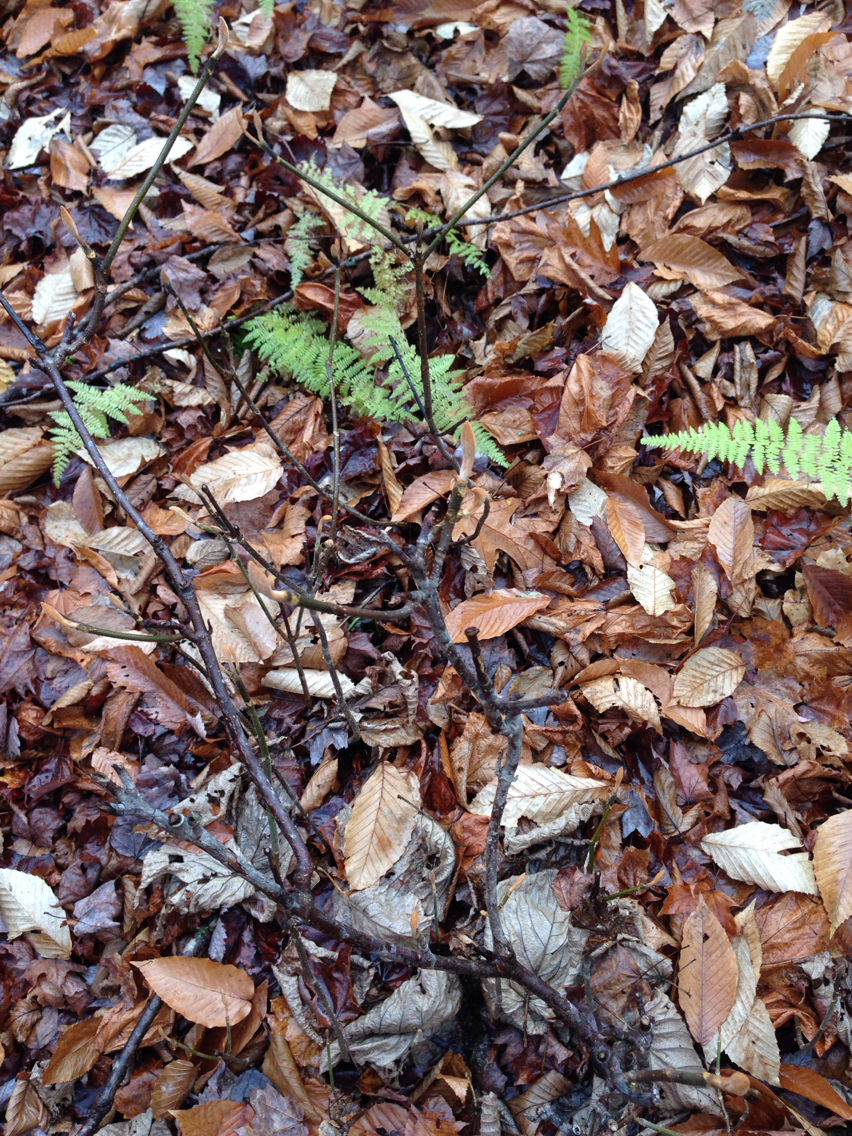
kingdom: Plantae
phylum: Tracheophyta
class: Magnoliopsida
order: Dipsacales
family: Viburnaceae
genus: Viburnum
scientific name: Viburnum lantanoides
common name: Hobblebush
